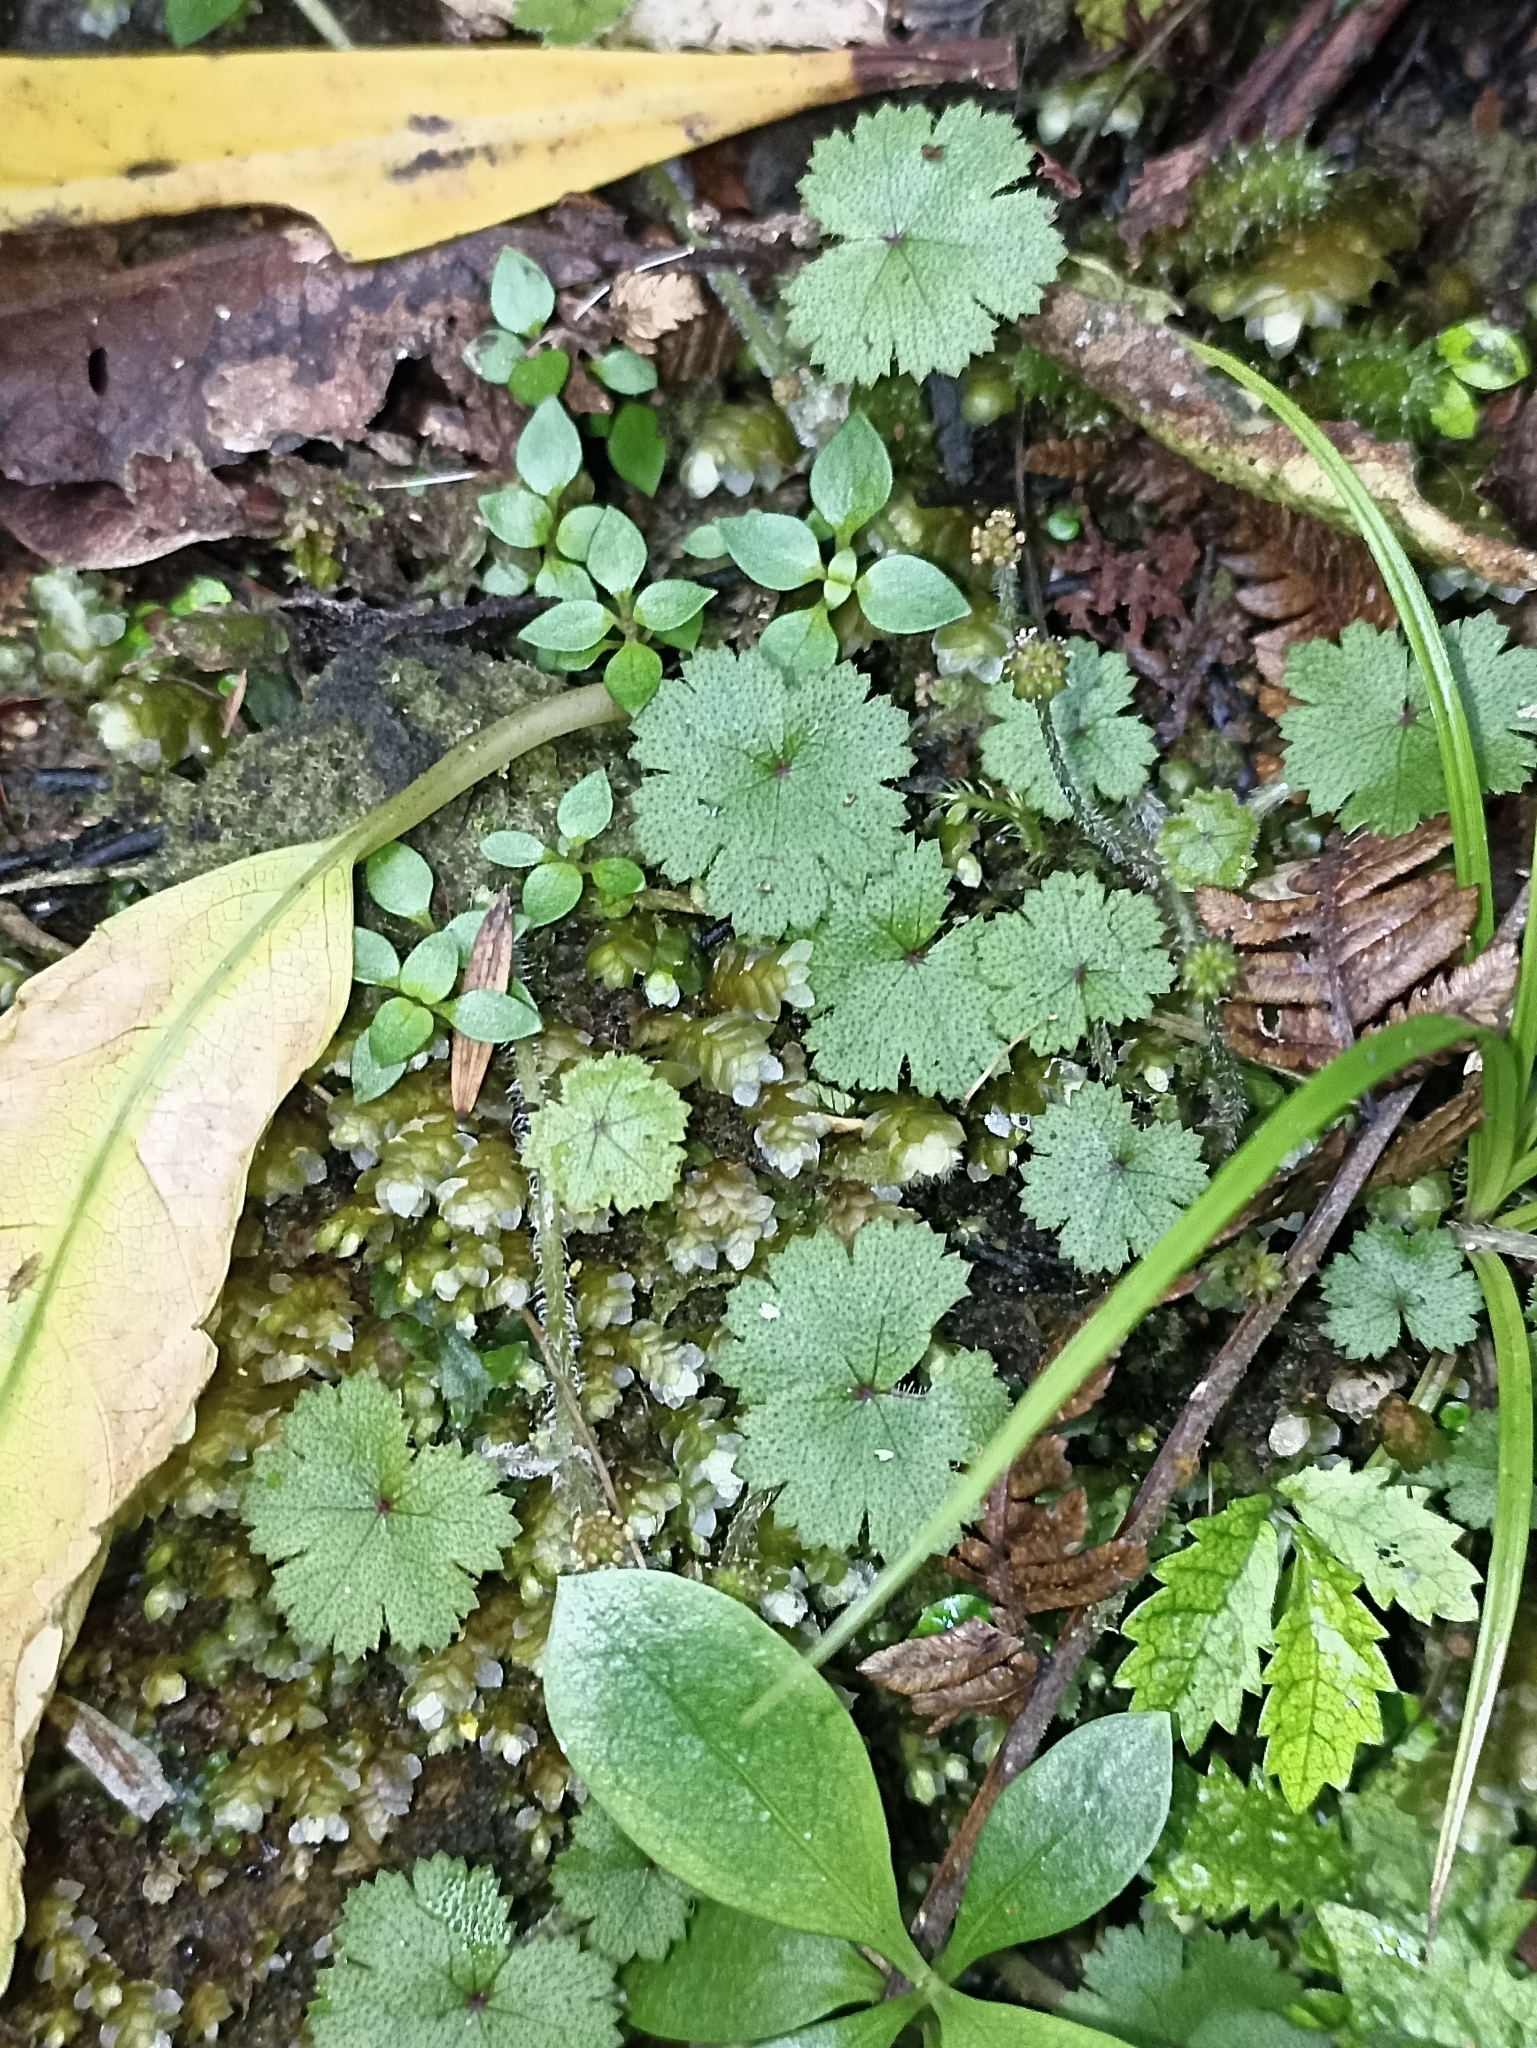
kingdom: Plantae
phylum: Tracheophyta
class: Magnoliopsida
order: Apiales
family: Araliaceae
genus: Hydrocotyle
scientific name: Hydrocotyle moschata
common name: Hairy pennywort
